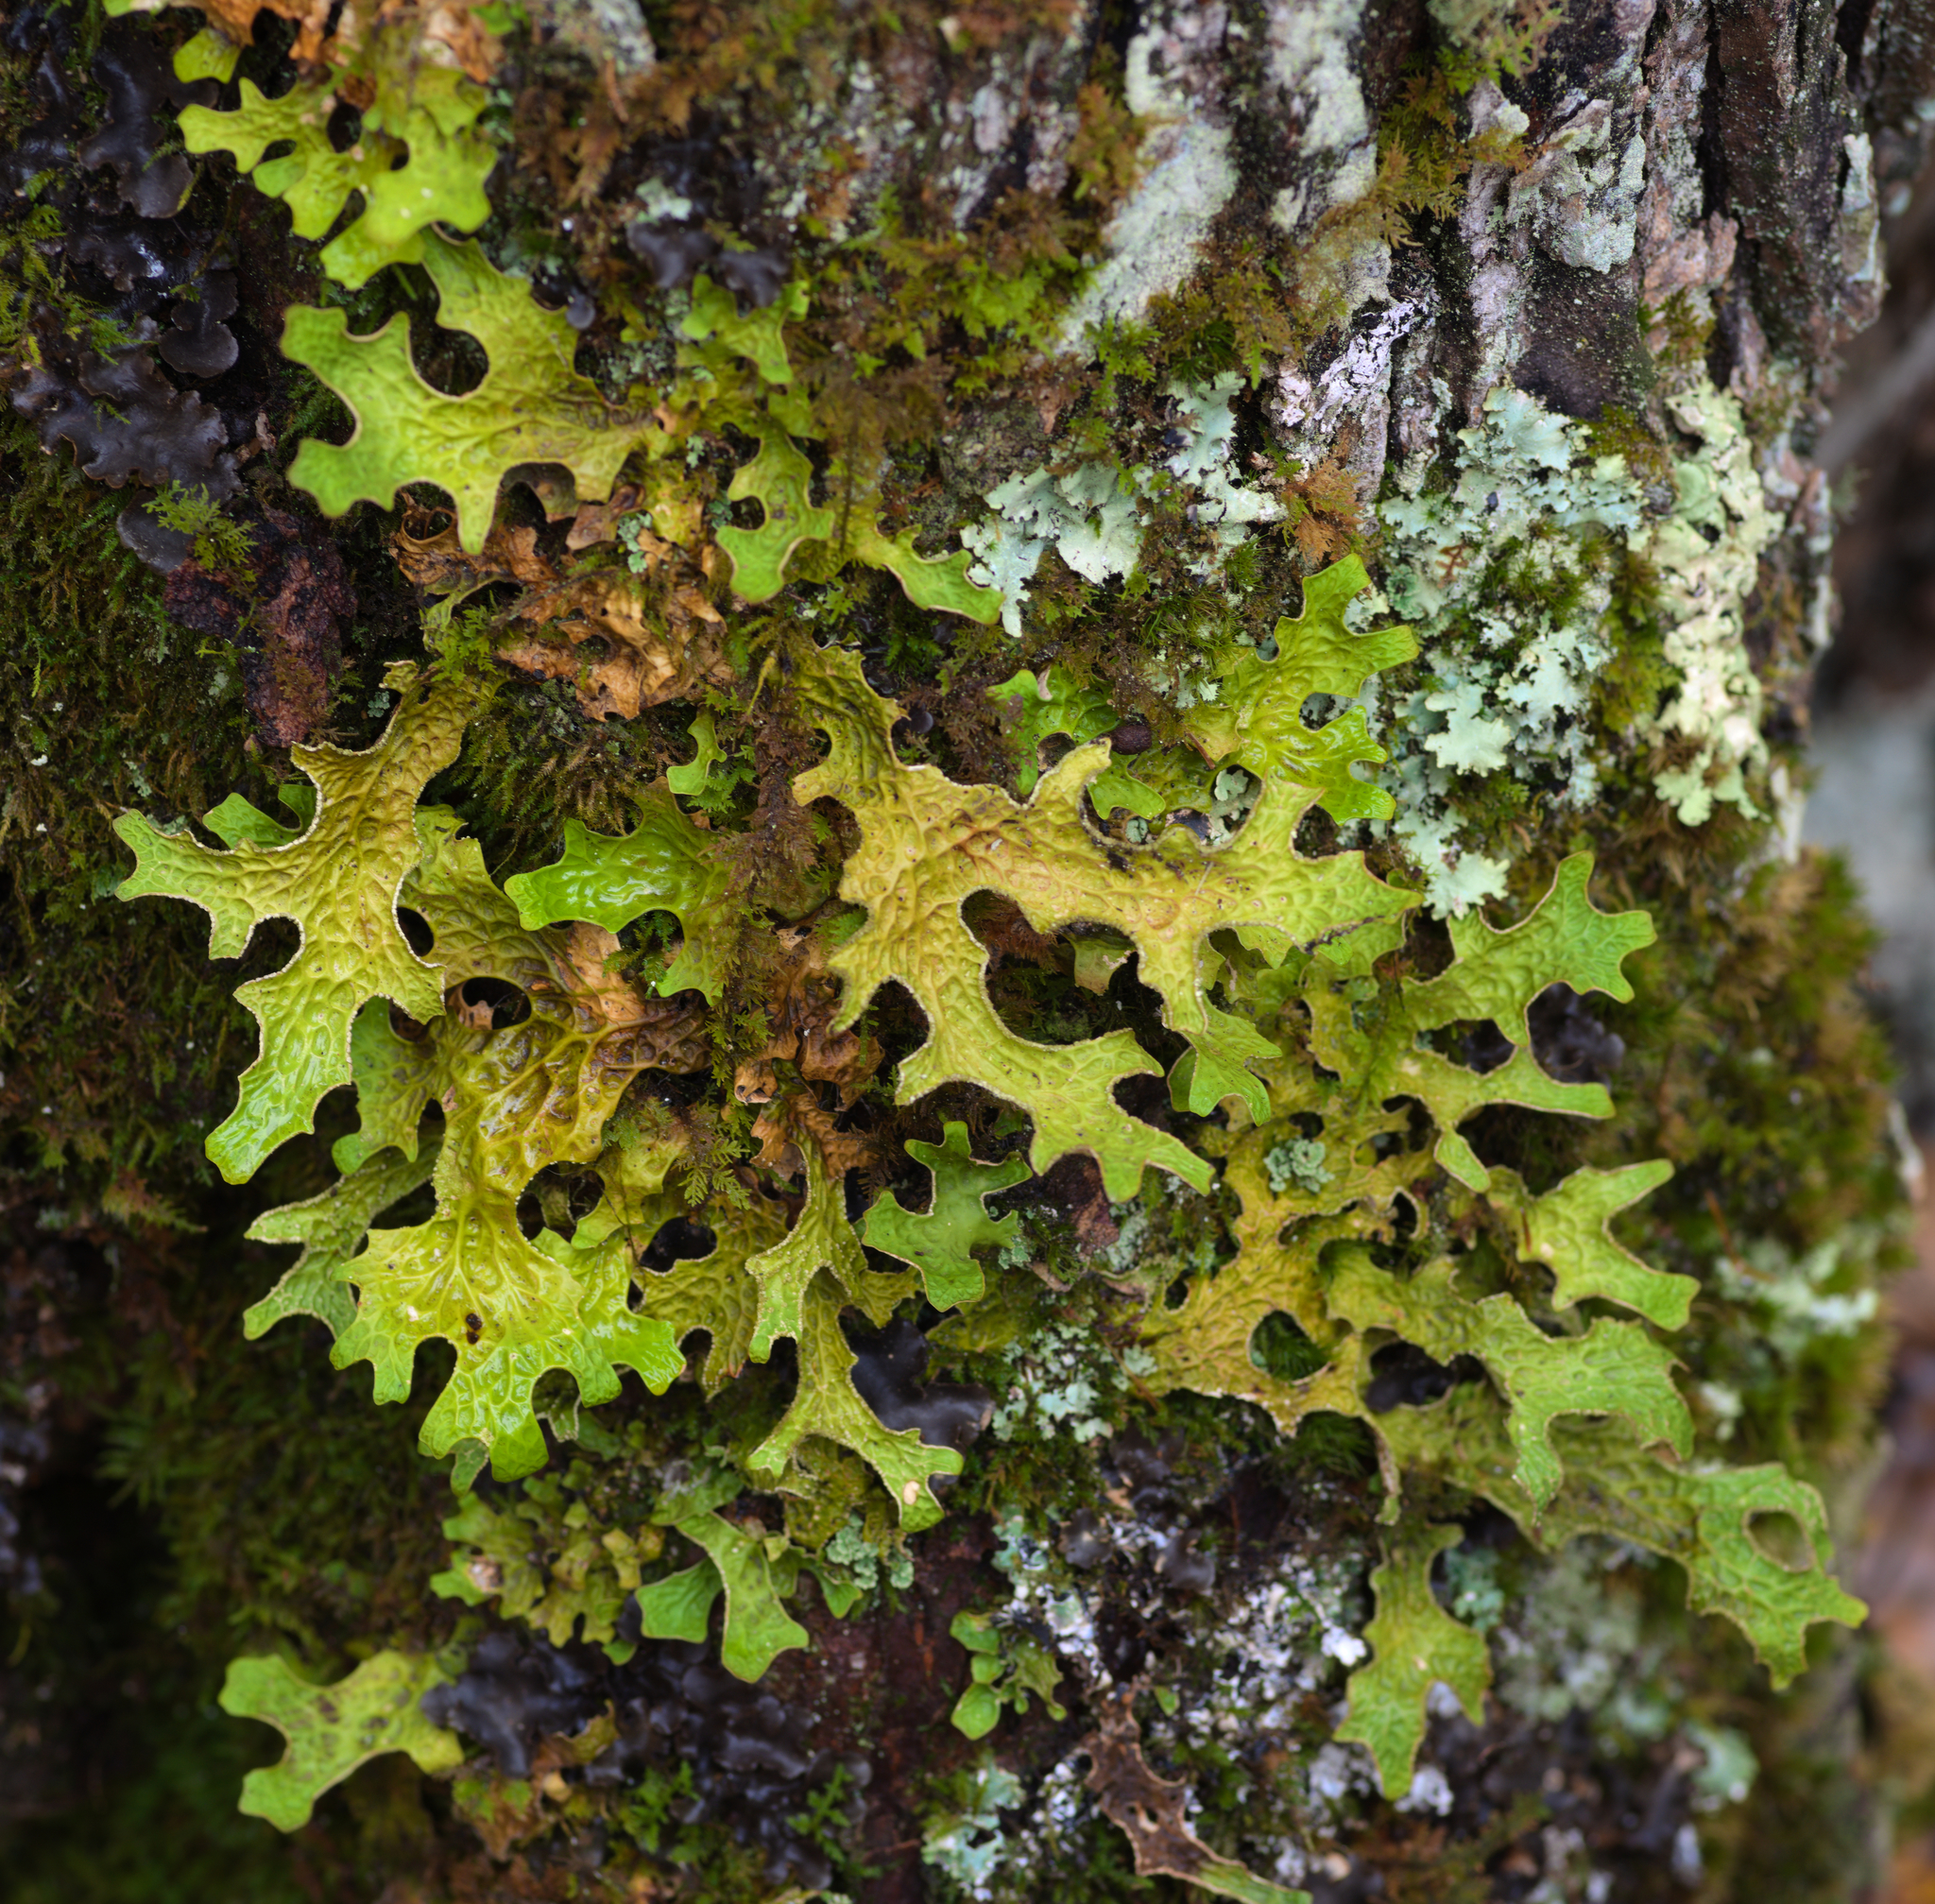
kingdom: Fungi
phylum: Ascomycota
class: Lecanoromycetes
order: Peltigerales
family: Lobariaceae
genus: Lobaria
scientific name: Lobaria pulmonaria
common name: Lungwort
